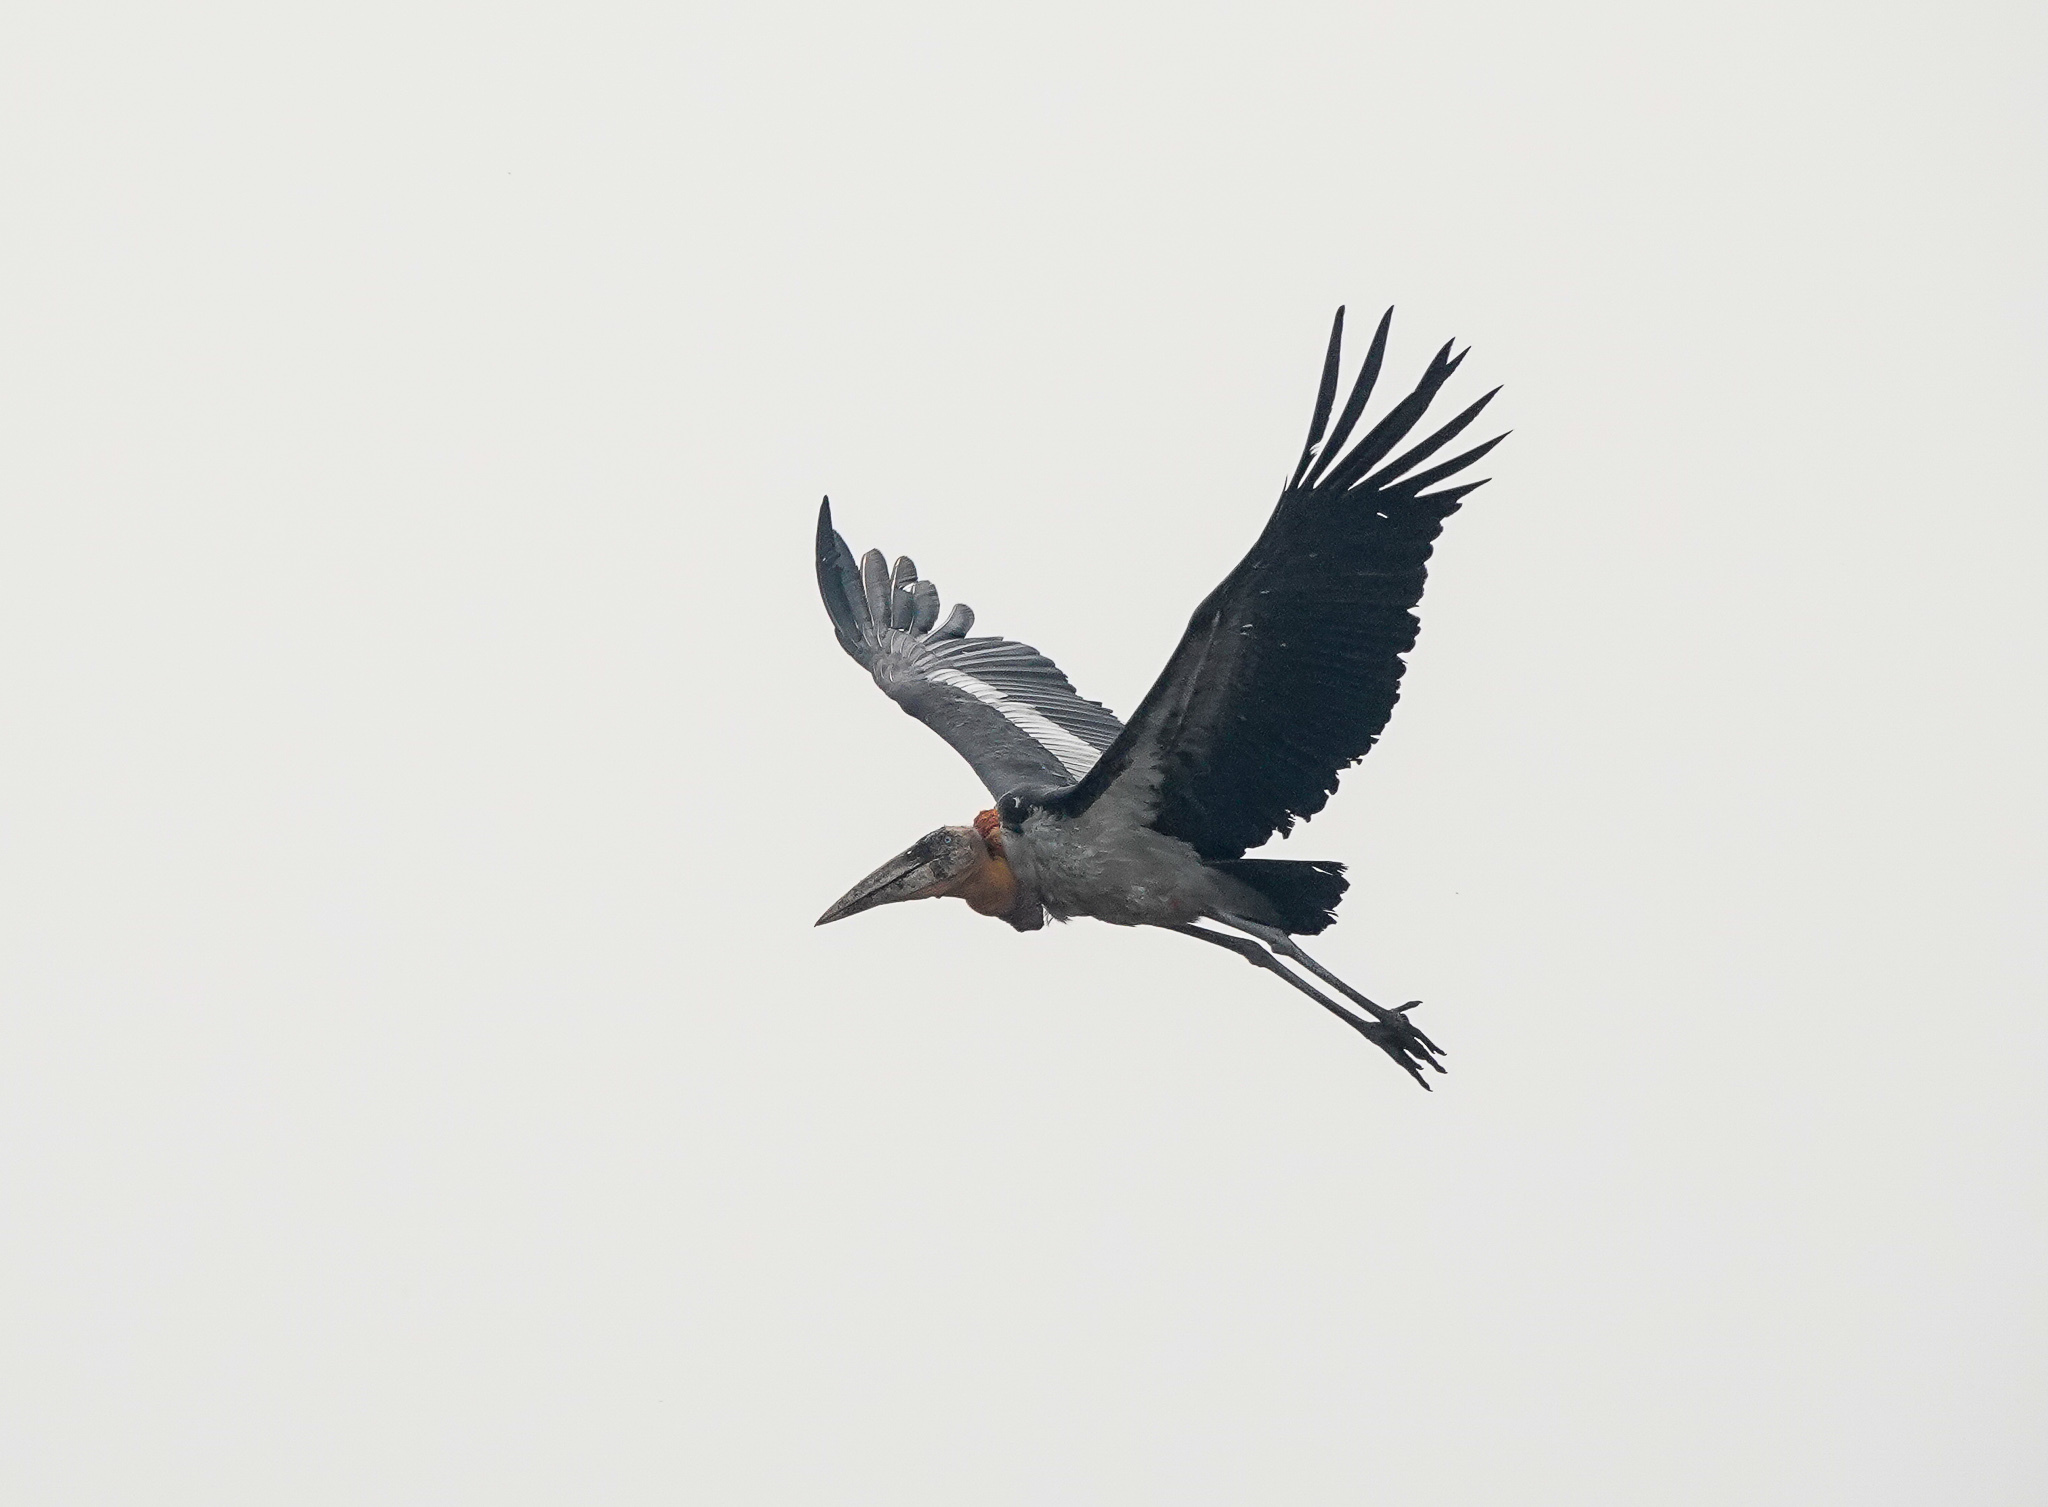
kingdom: Animalia
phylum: Chordata
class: Aves
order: Ciconiiformes
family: Ciconiidae
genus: Leptoptilos
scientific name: Leptoptilos dubius
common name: Greater adjutant
